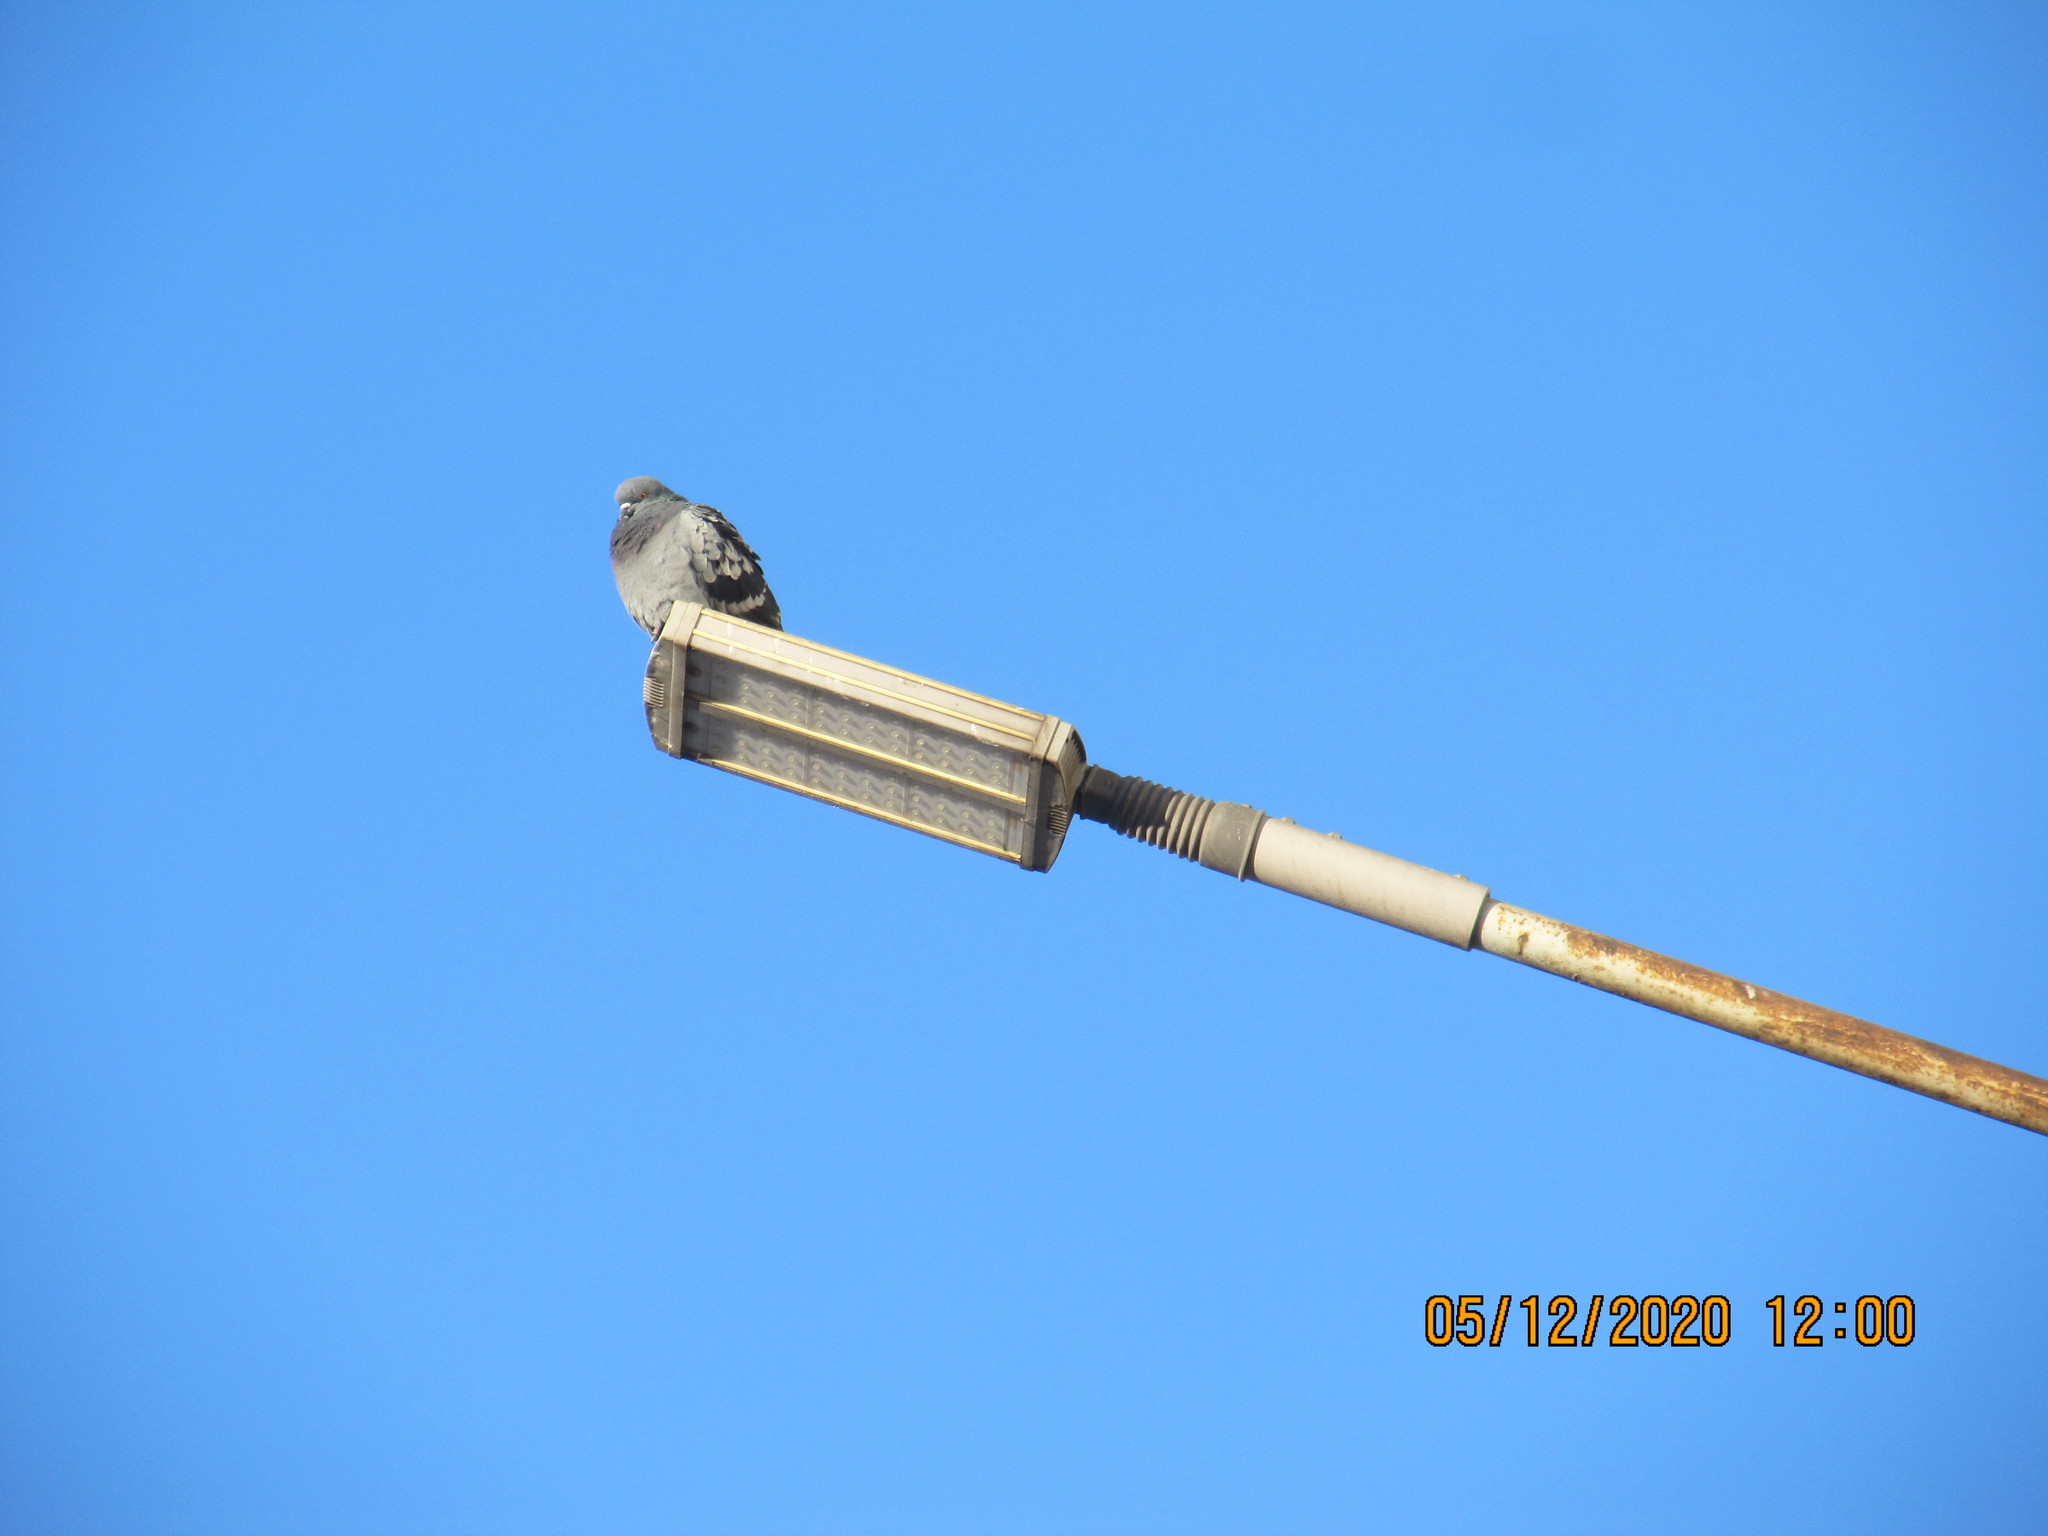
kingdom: Animalia
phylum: Chordata
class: Aves
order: Columbiformes
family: Columbidae
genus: Columba
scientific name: Columba livia
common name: Rock pigeon
